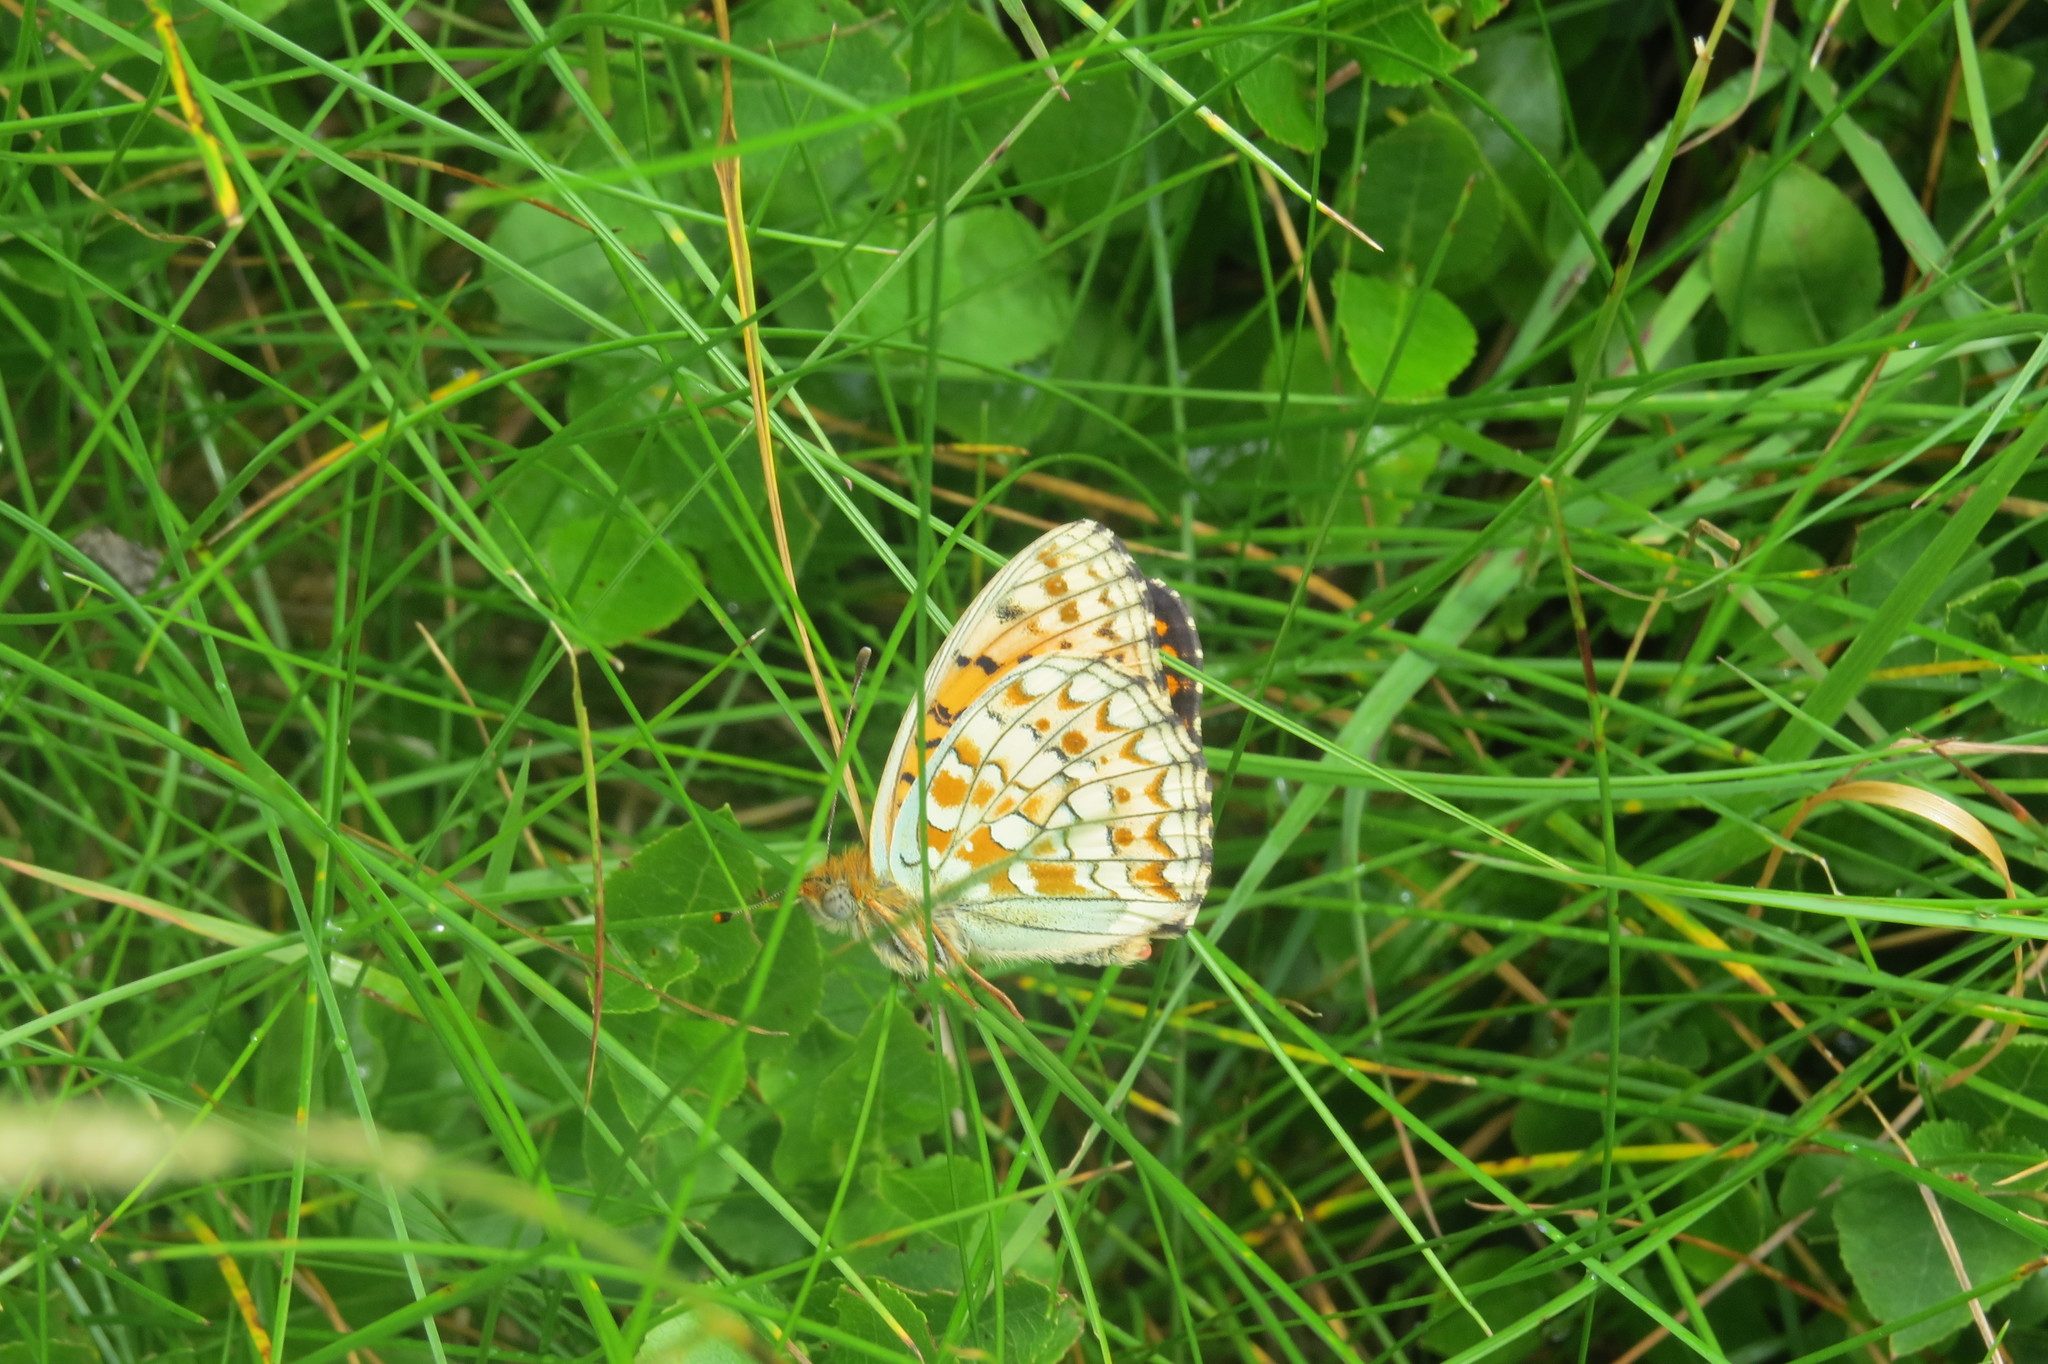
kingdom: Animalia
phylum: Arthropoda
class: Insecta
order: Lepidoptera
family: Nymphalidae
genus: Fabriciana
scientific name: Fabriciana niobe
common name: Niobe fritillary
